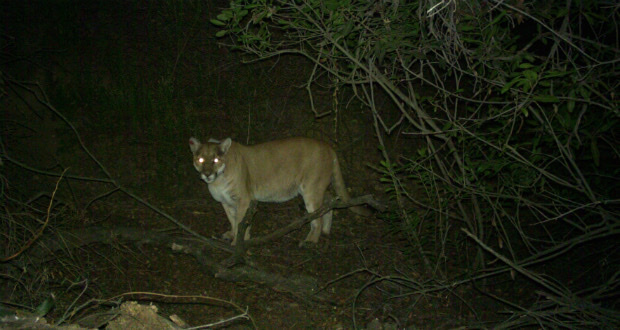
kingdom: Animalia
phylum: Chordata
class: Mammalia
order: Carnivora
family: Felidae
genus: Puma
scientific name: Puma concolor
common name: Puma
